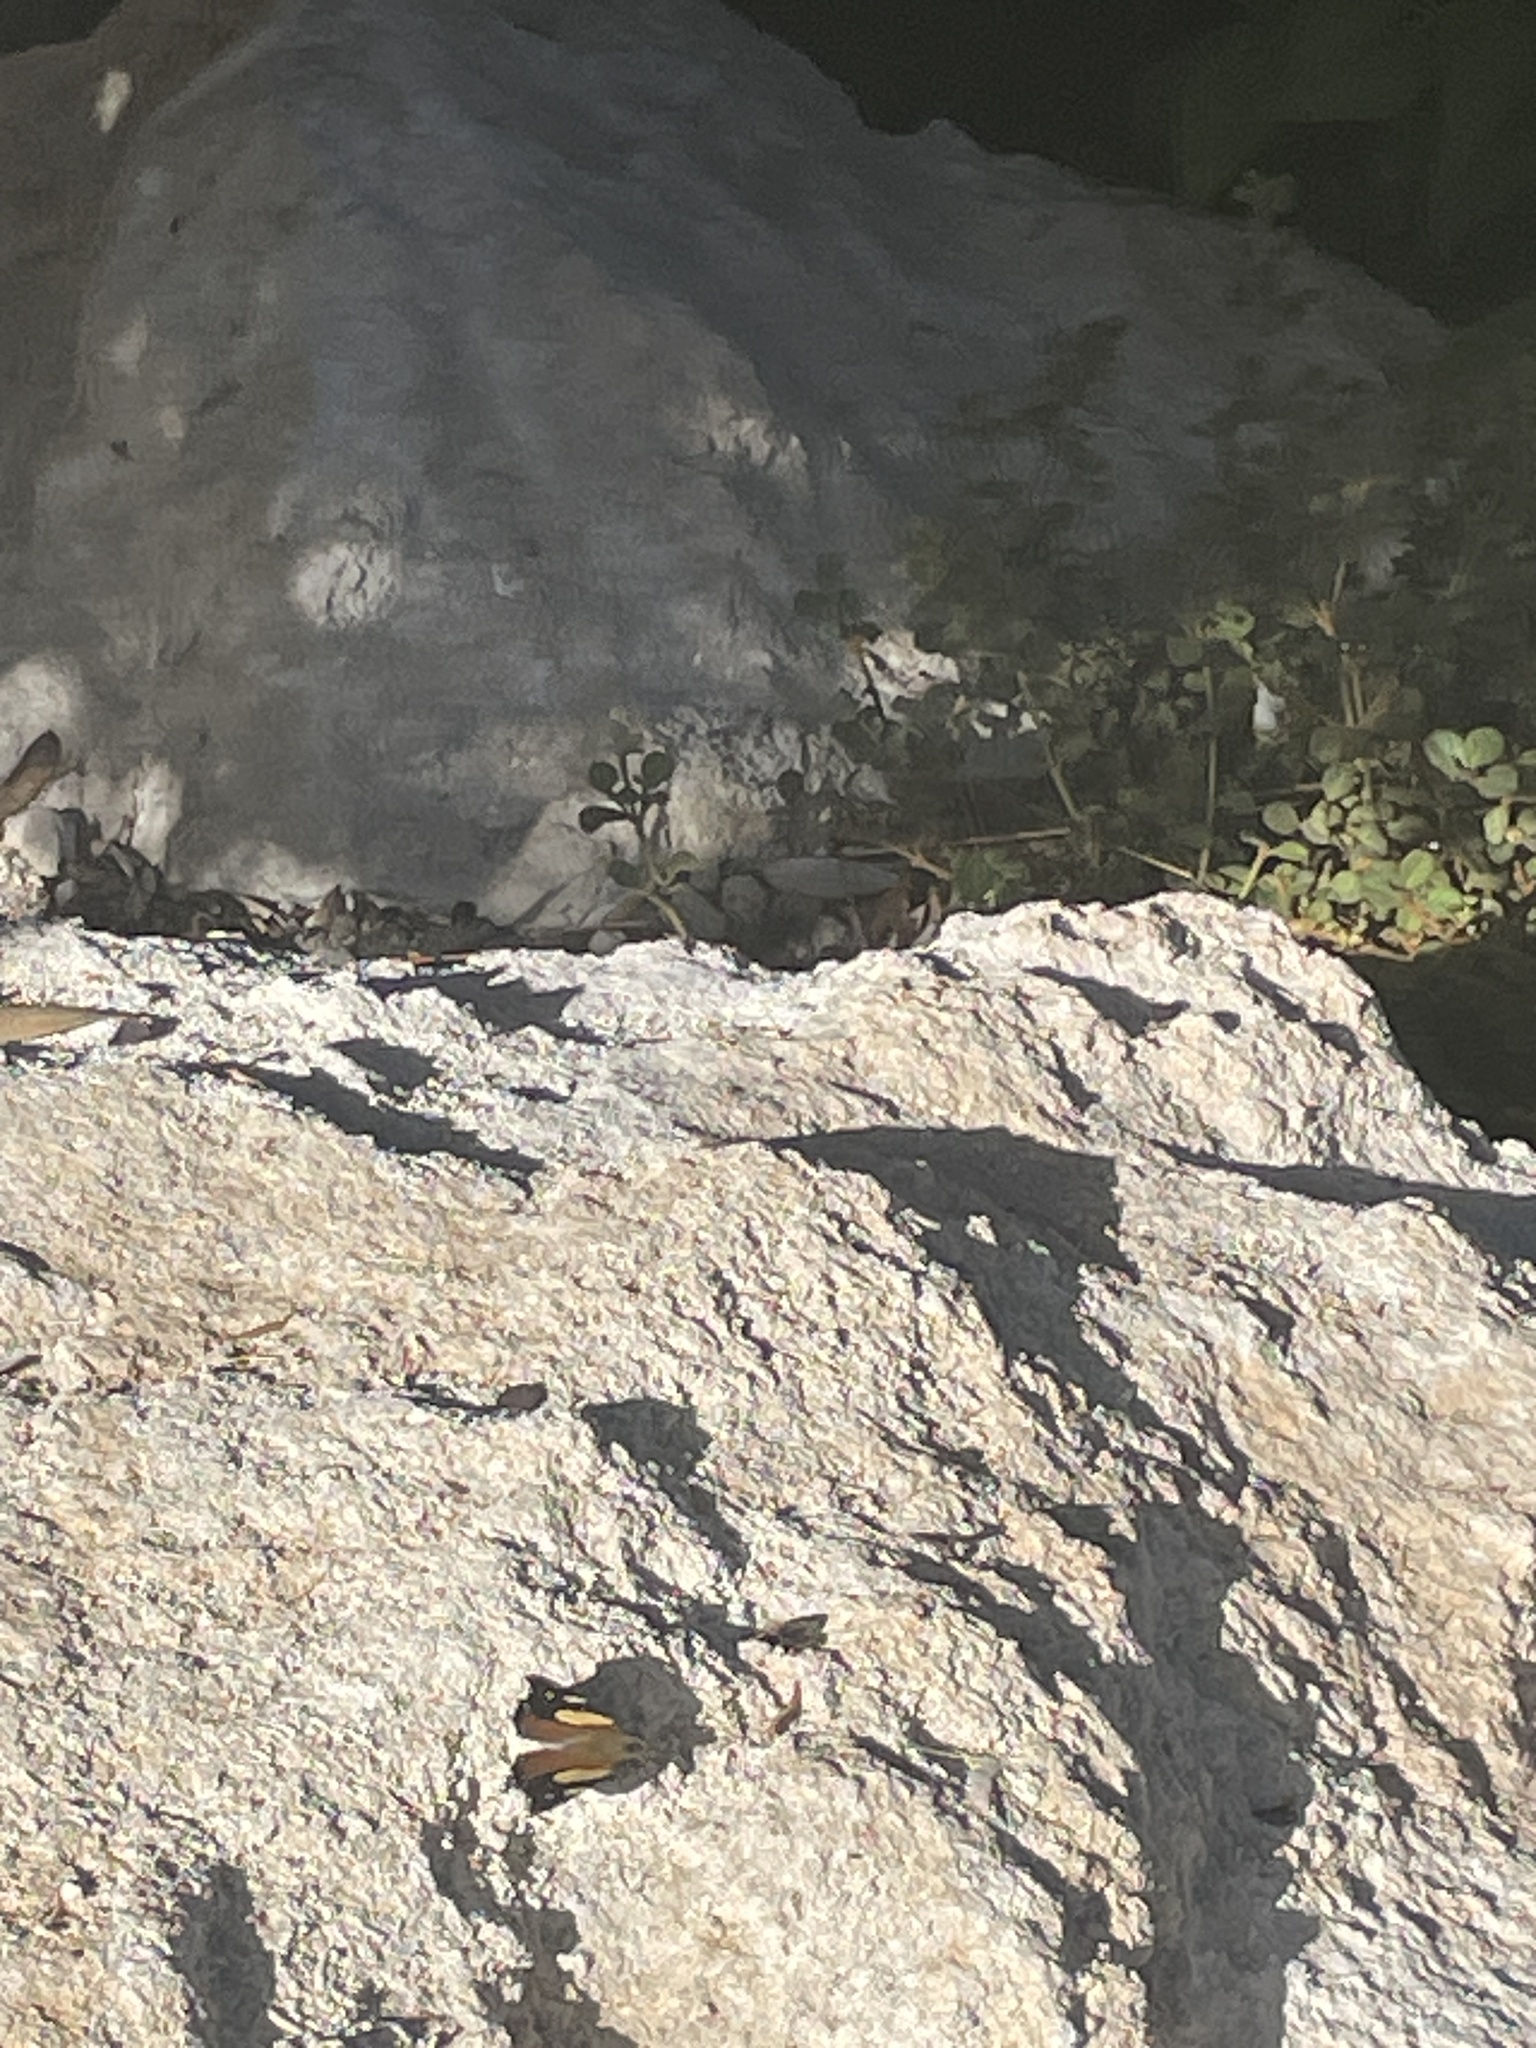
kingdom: Animalia
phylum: Arthropoda
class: Insecta
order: Lepidoptera
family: Nymphalidae
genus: Vanessa
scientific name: Vanessa itea
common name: Yellow admiral
